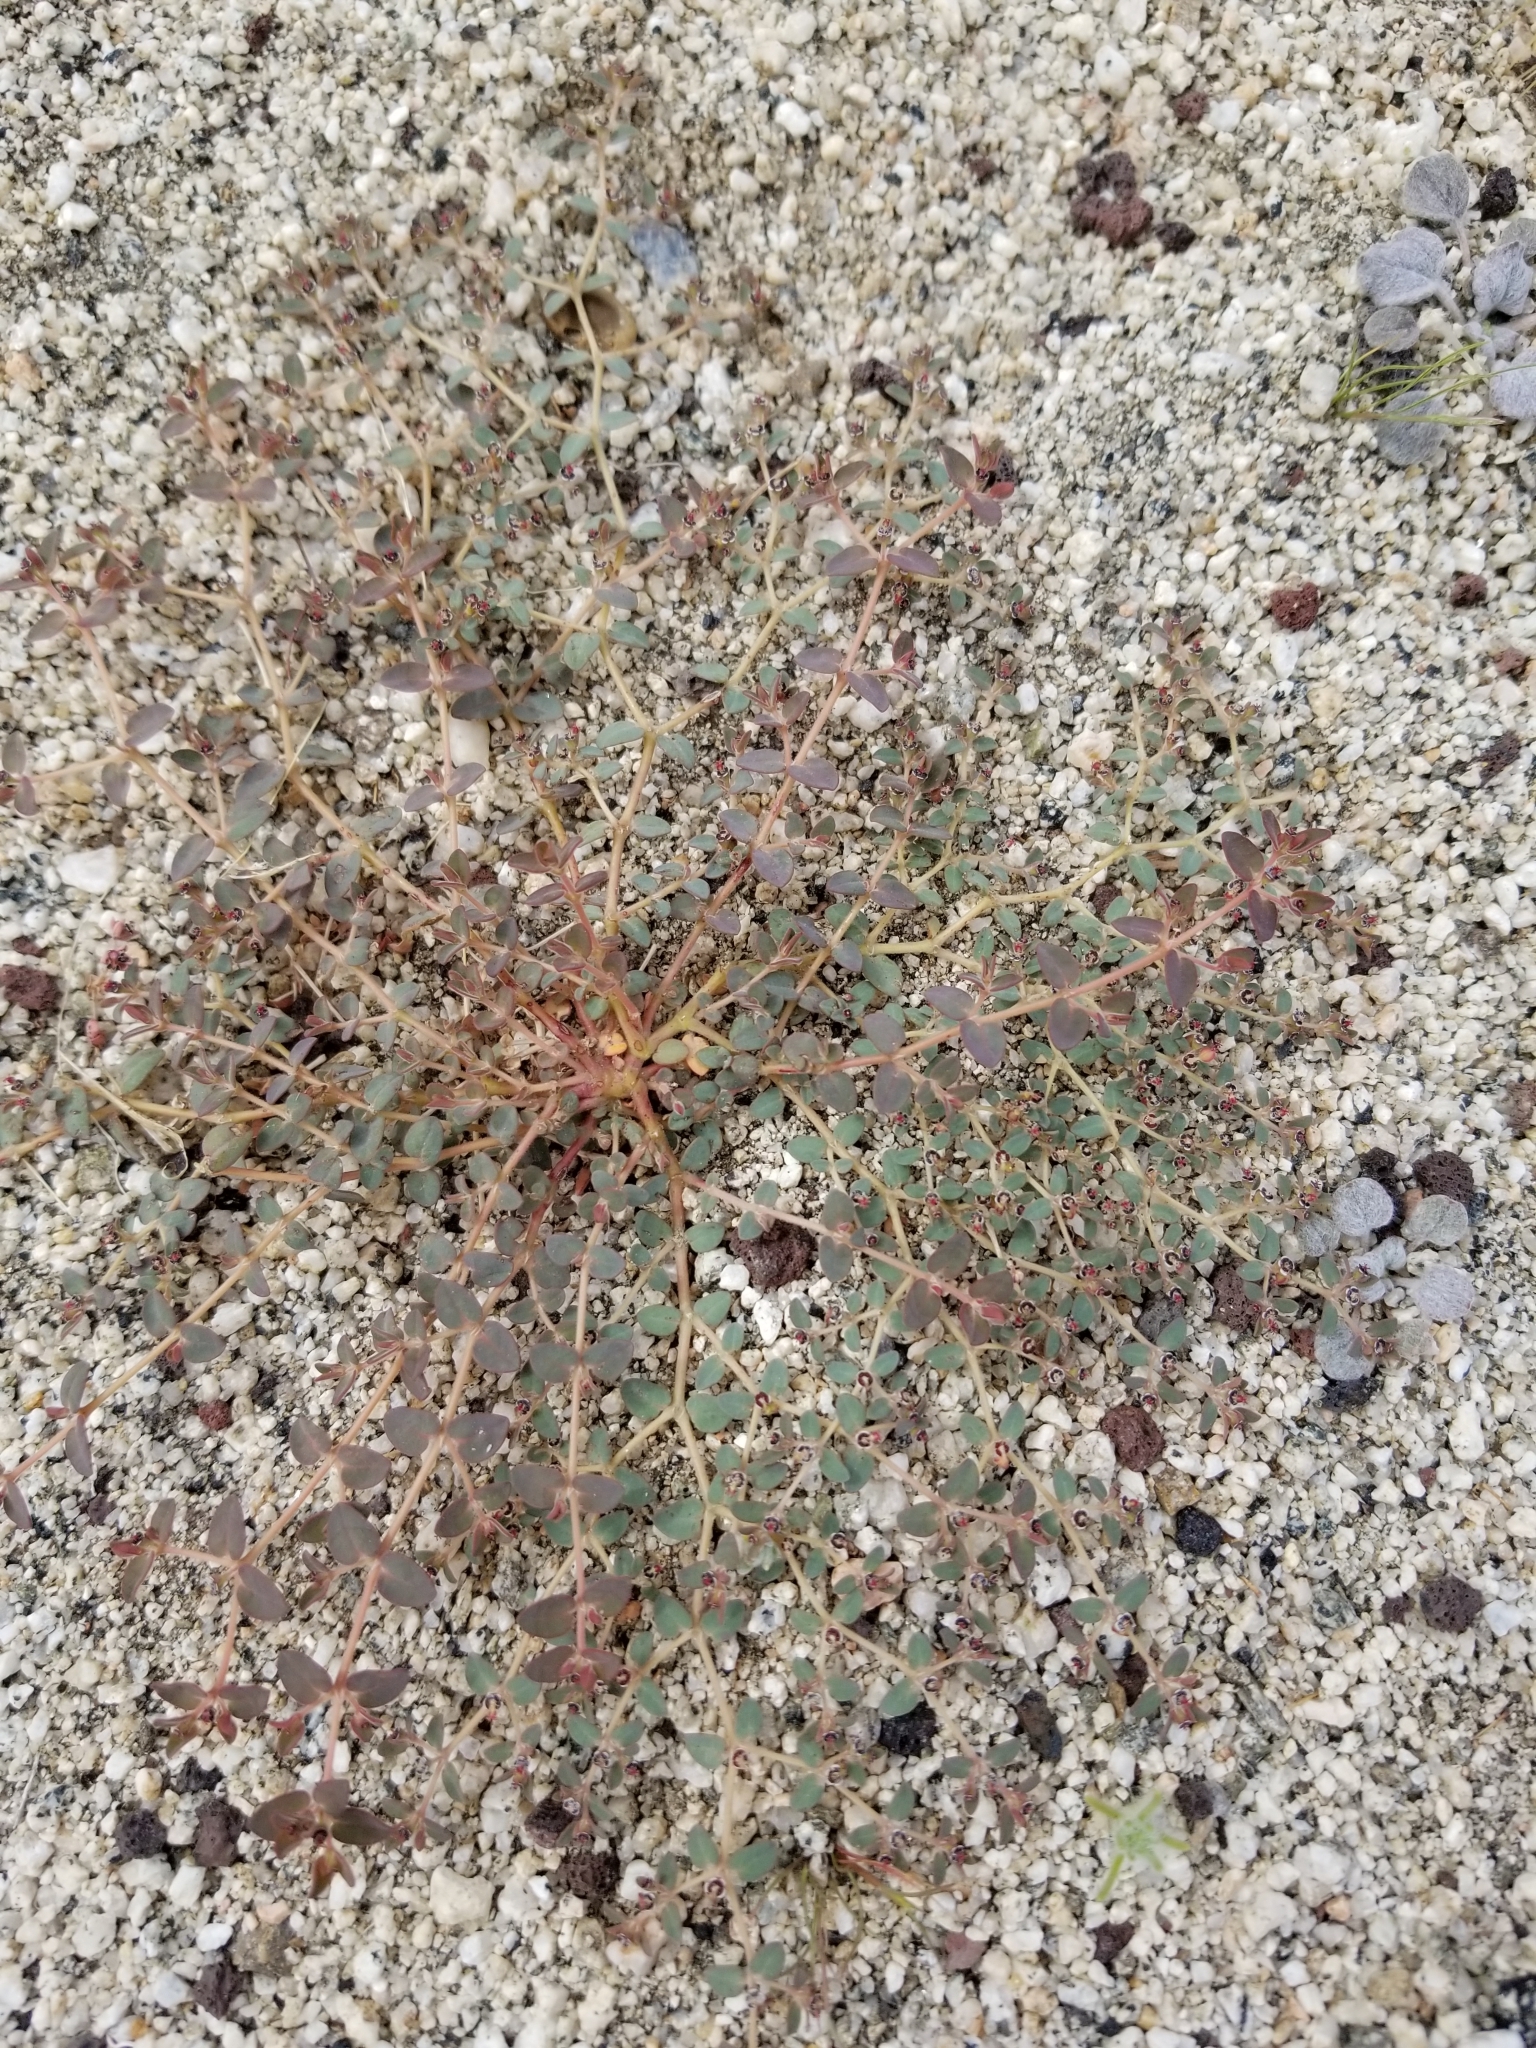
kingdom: Plantae
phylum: Tracheophyta
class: Magnoliopsida
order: Malpighiales
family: Euphorbiaceae
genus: Euphorbia
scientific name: Euphorbia polycarpa
